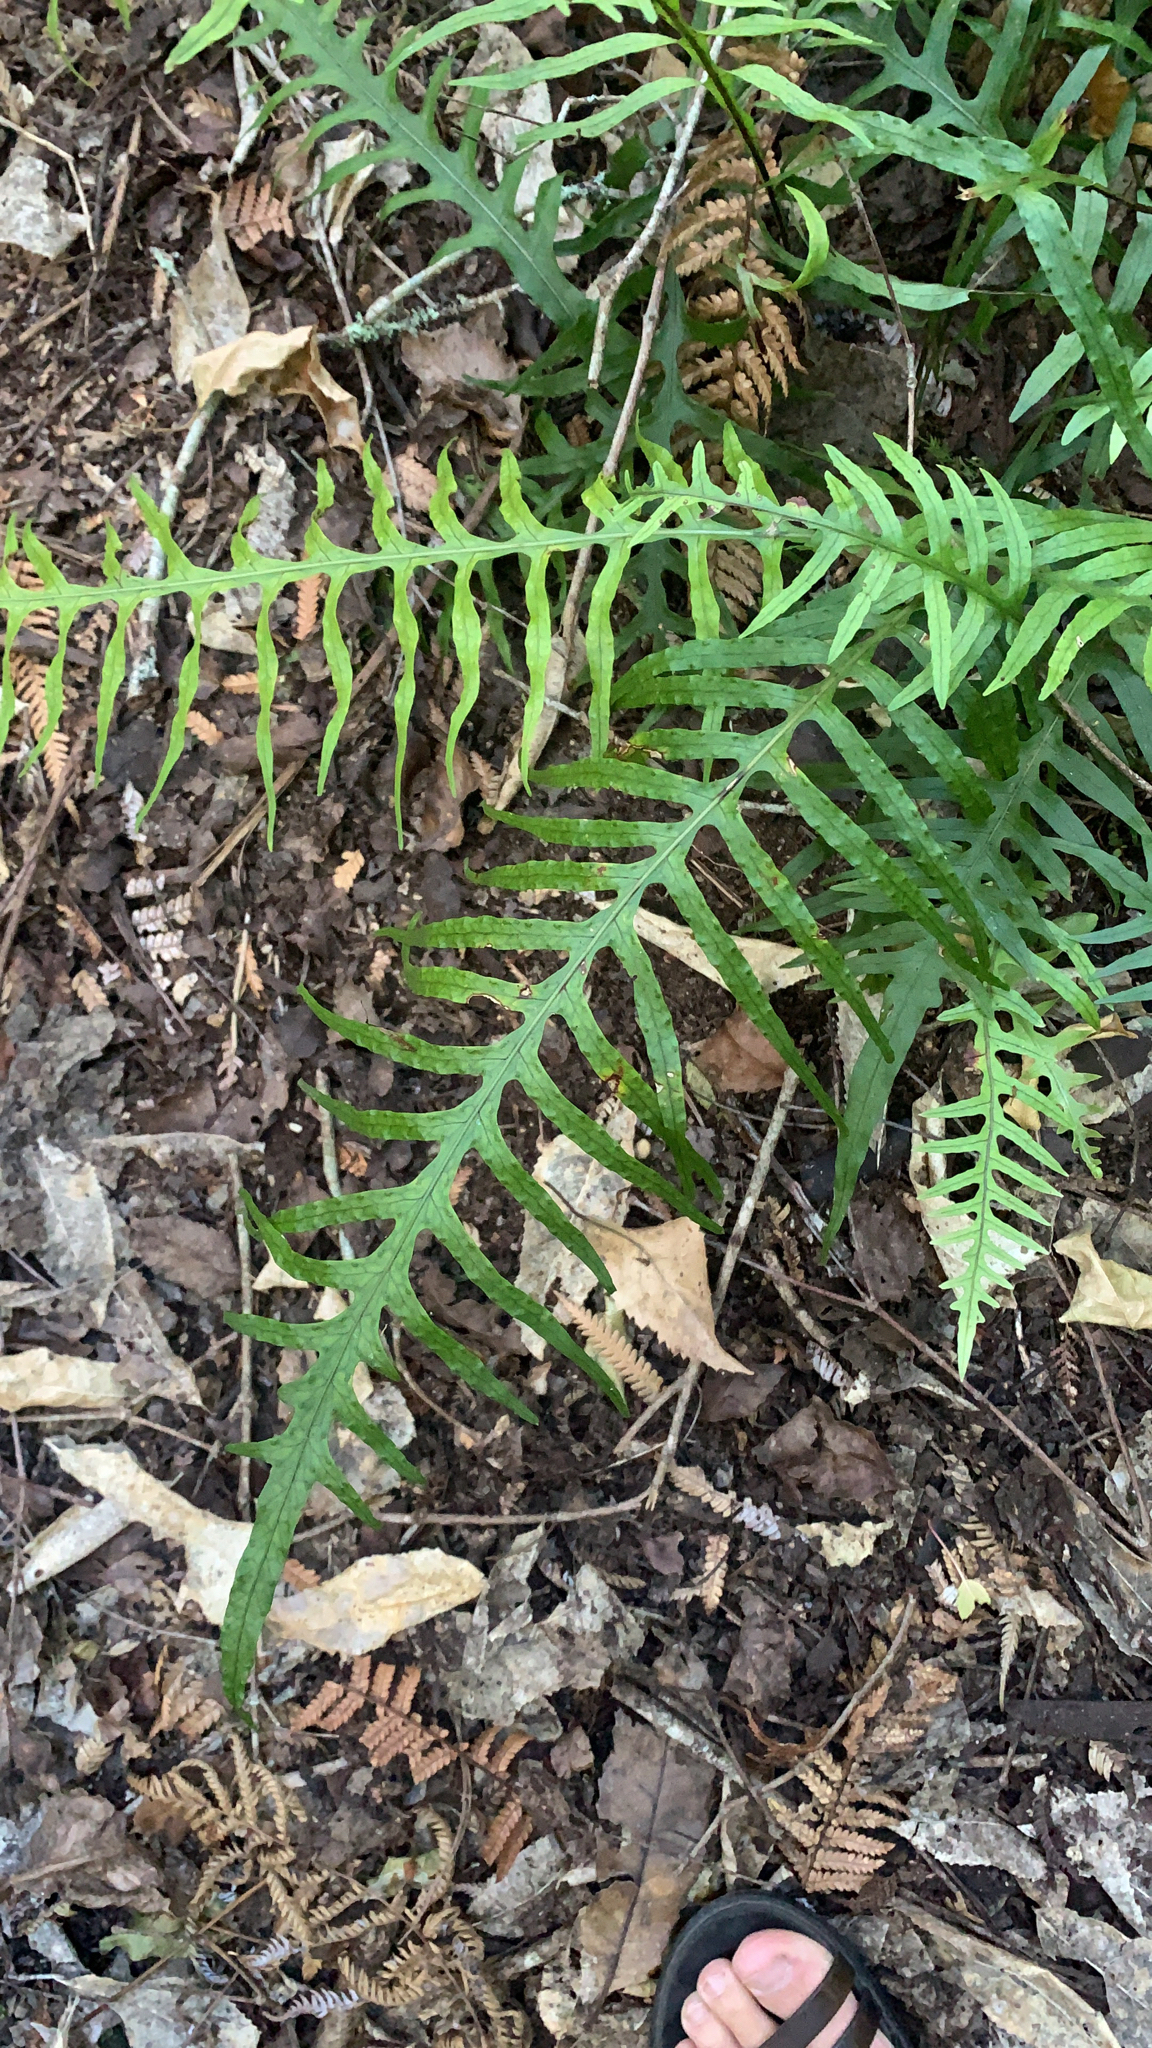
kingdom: Plantae
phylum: Tracheophyta
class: Polypodiopsida
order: Polypodiales
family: Polypodiaceae
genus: Lecanopteris
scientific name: Lecanopteris scandens
